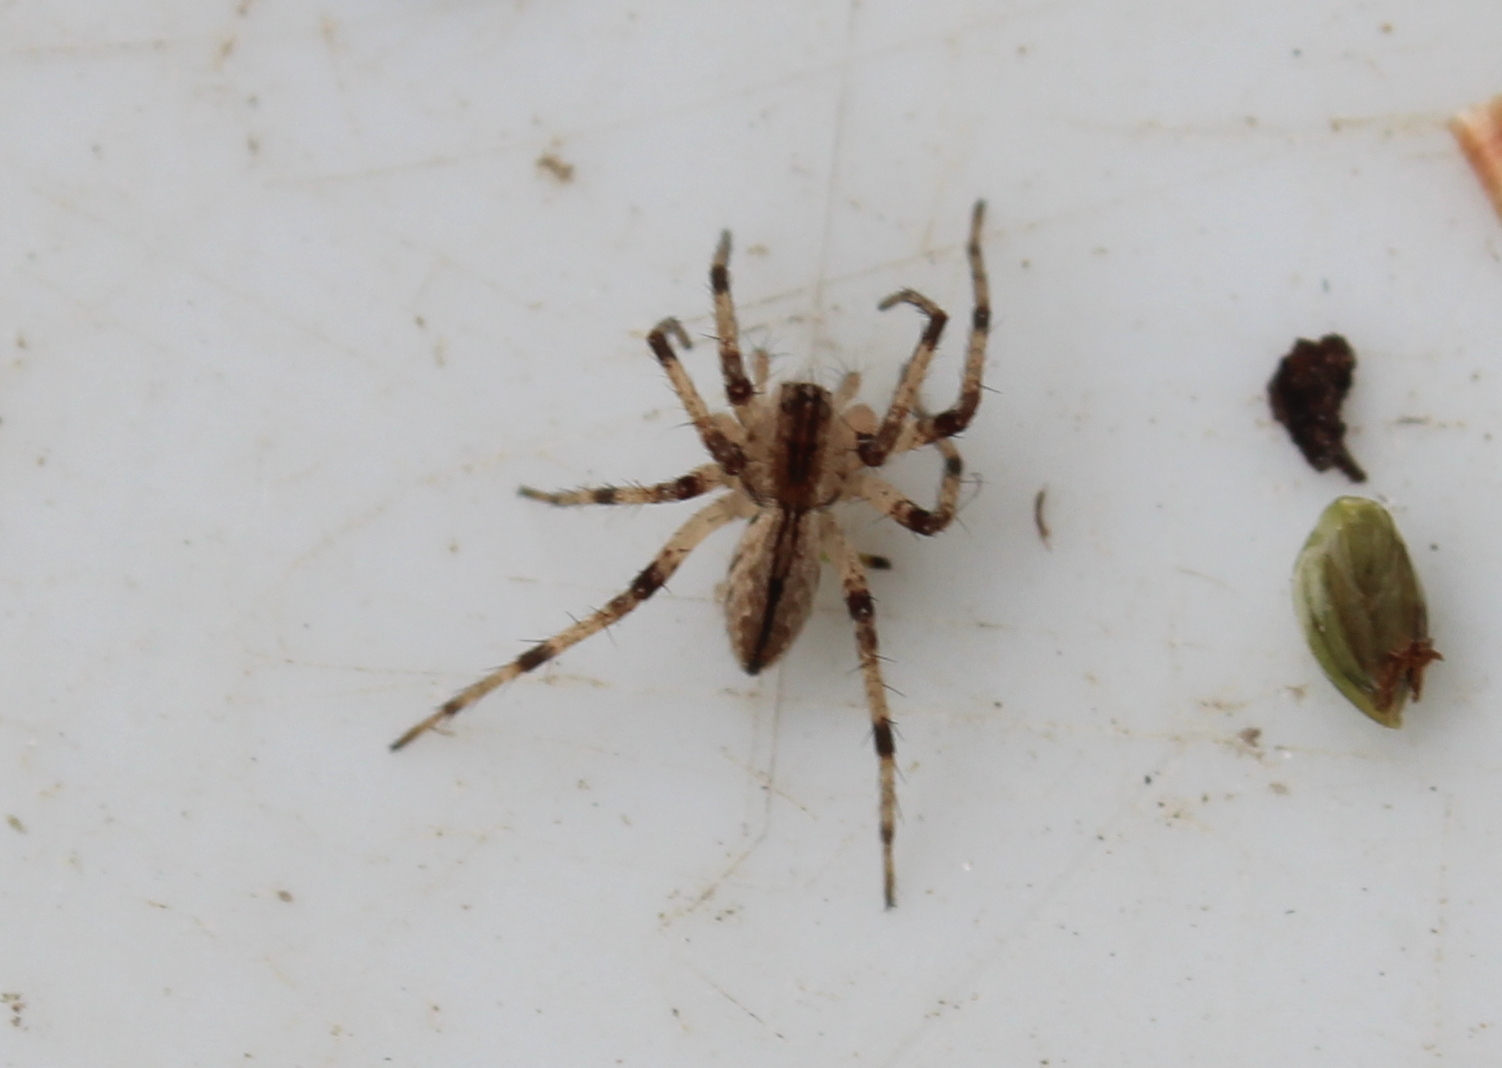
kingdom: Animalia
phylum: Arthropoda
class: Arachnida
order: Araneae
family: Pisauridae
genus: Pisaurina
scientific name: Pisaurina mira
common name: American nursery web spider
